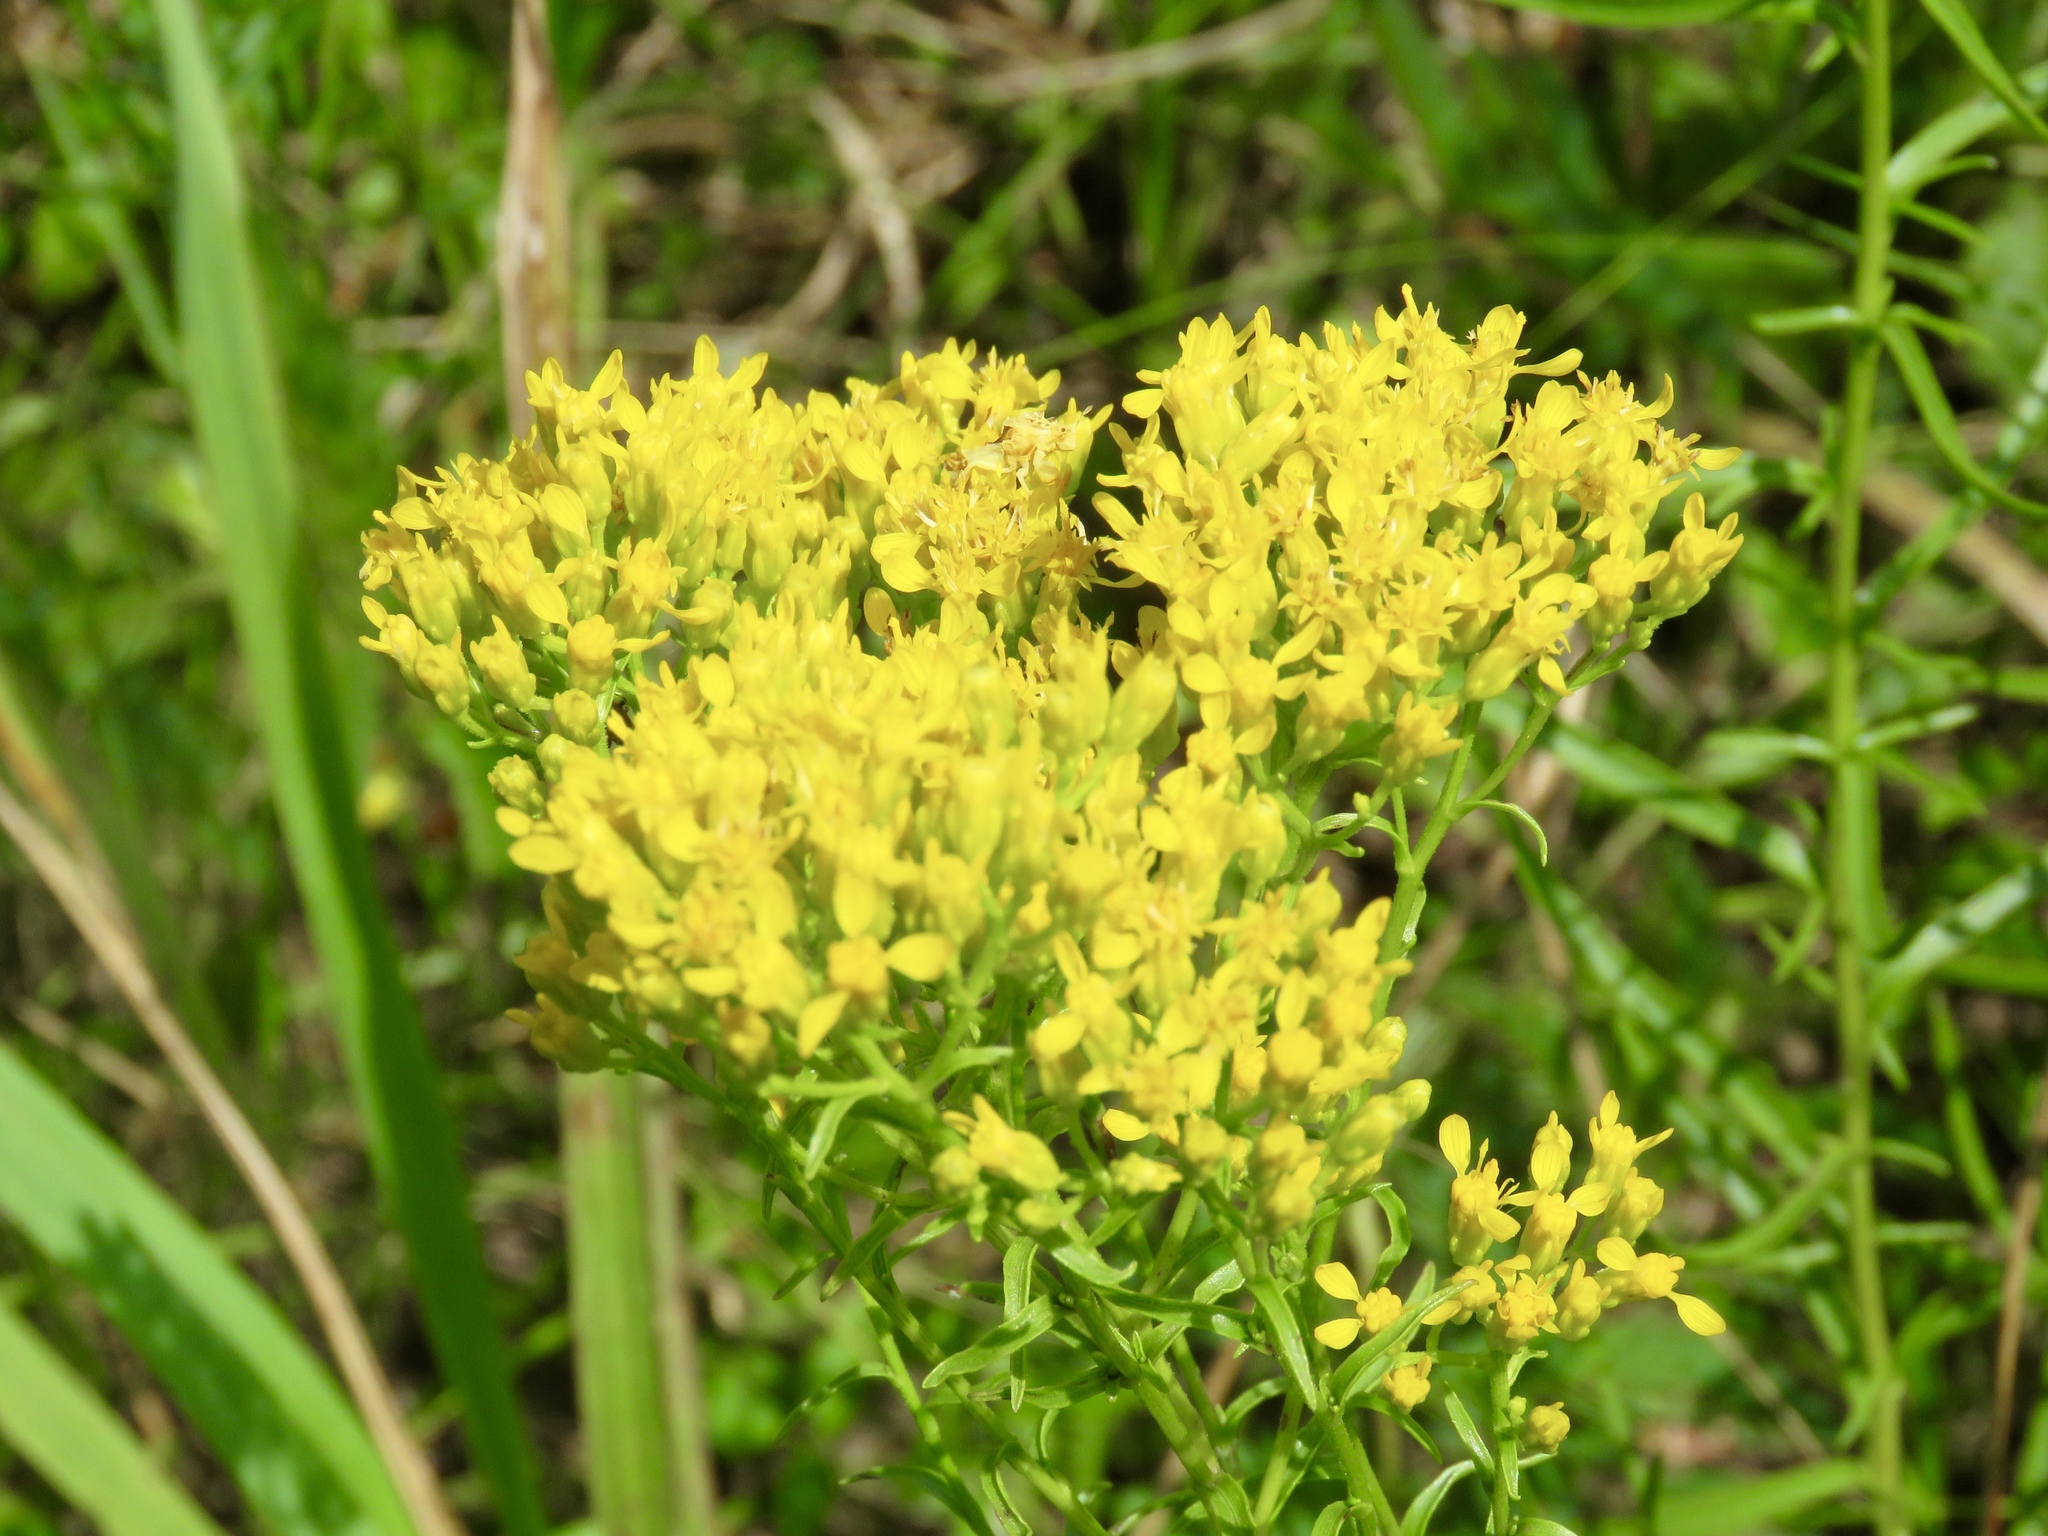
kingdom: Plantae
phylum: Tracheophyta
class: Magnoliopsida
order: Asterales
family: Asteraceae
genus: Solidago
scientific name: Solidago nitida
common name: Shiny goldenrod
